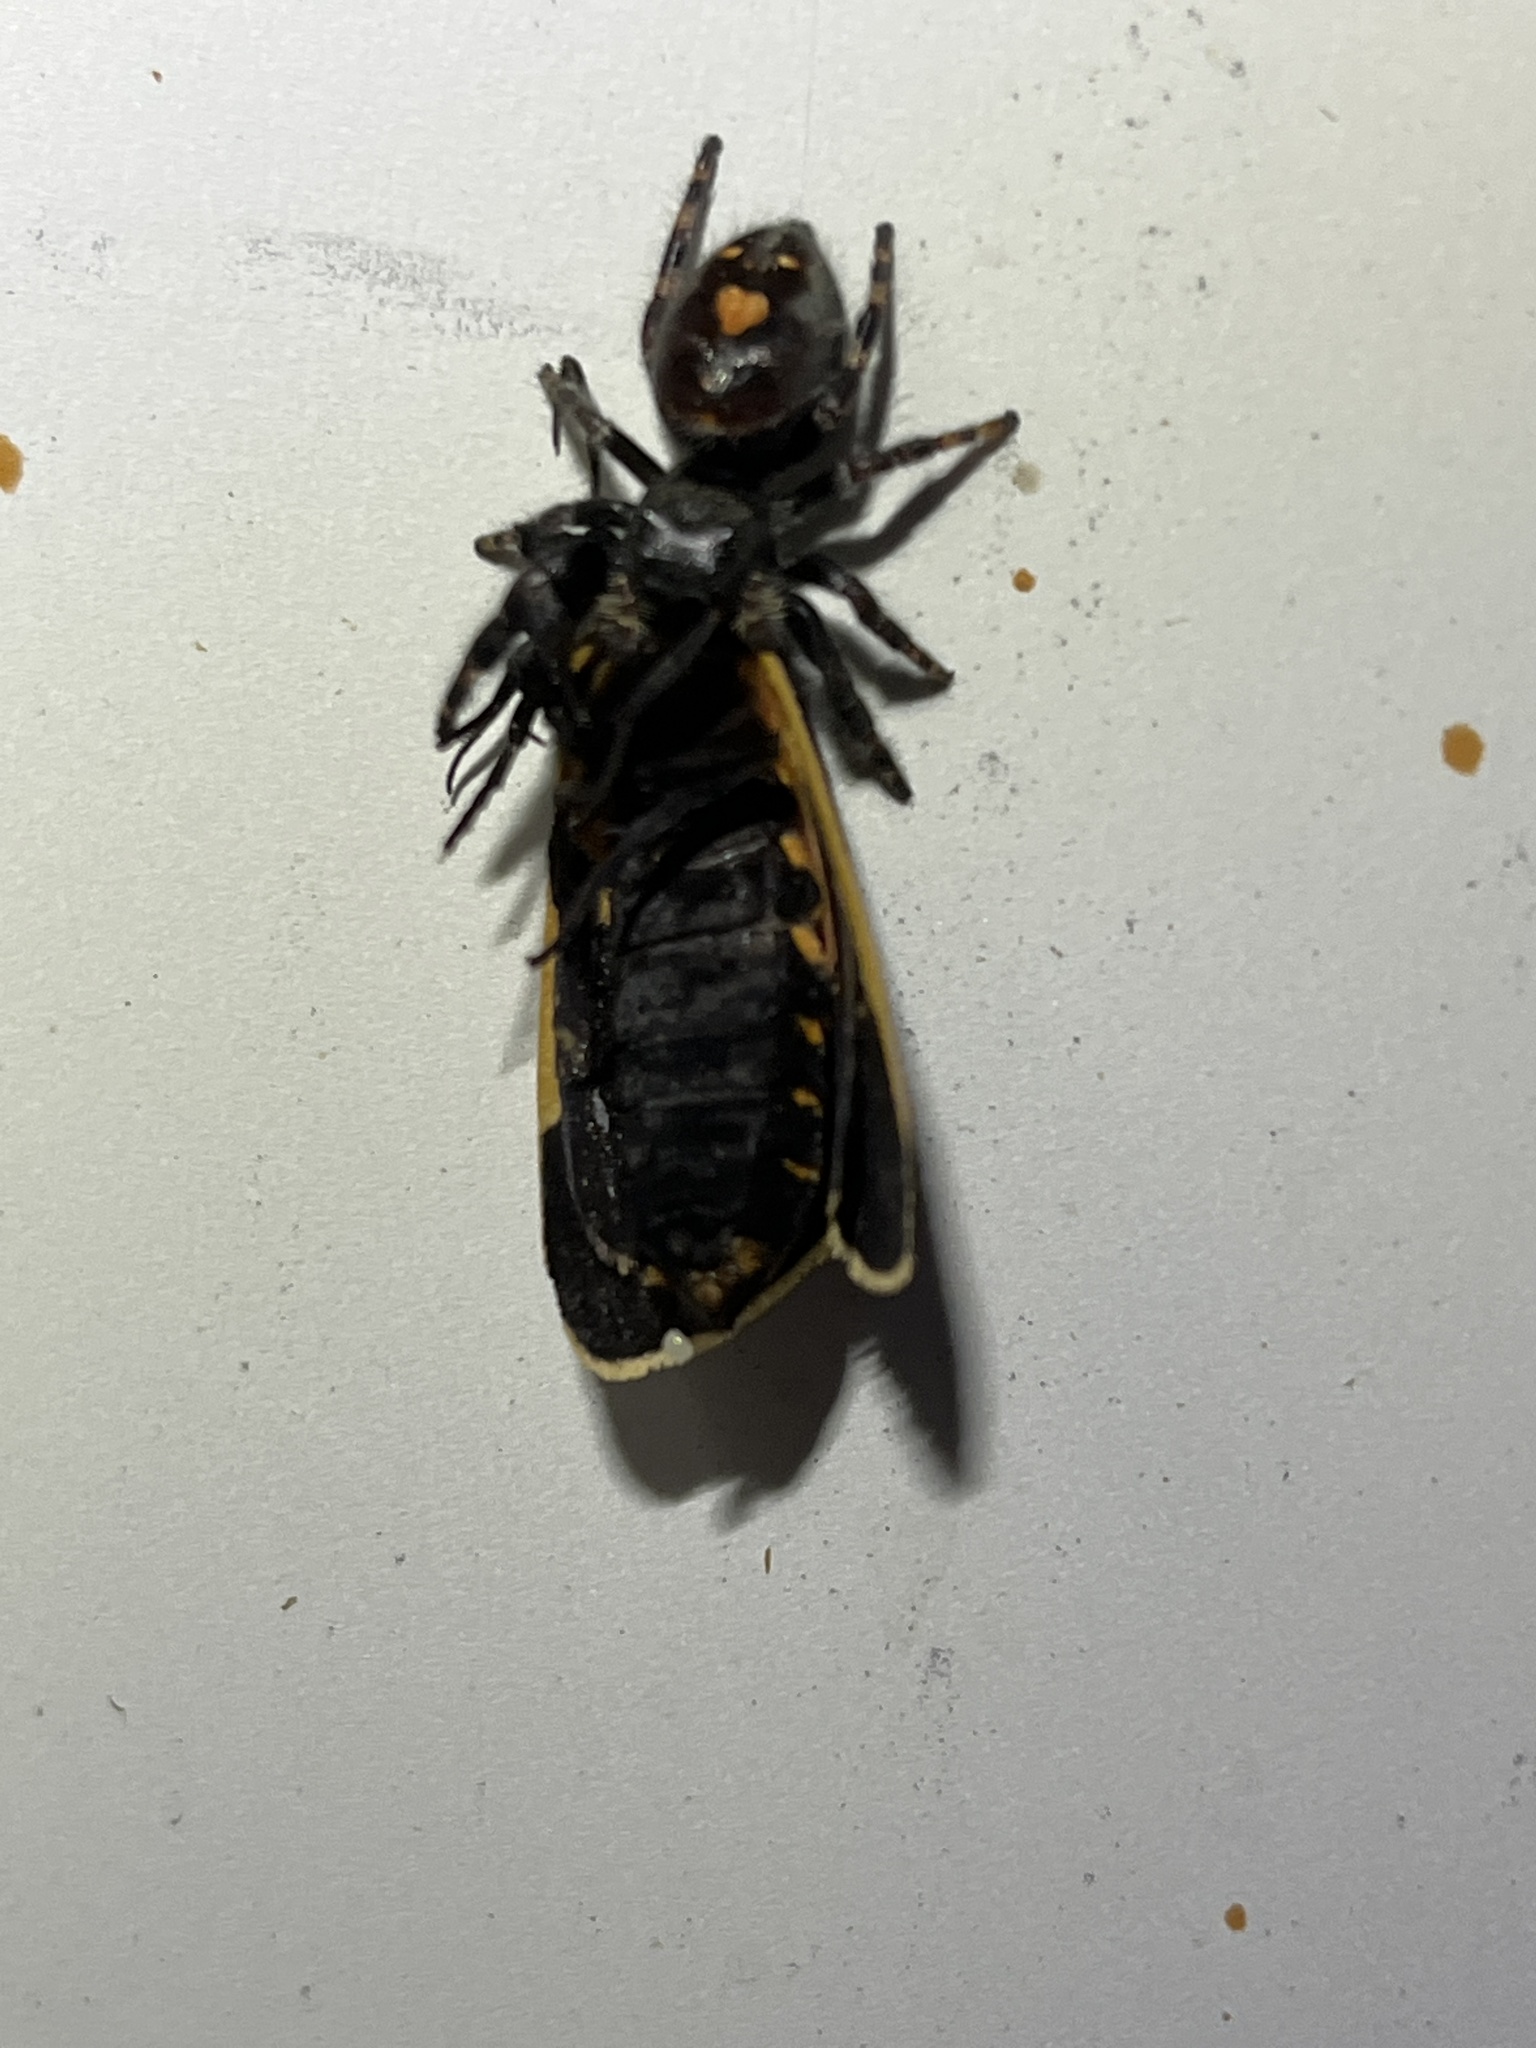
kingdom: Animalia
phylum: Arthropoda
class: Arachnida
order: Araneae
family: Salticidae
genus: Phidippus
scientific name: Phidippus audax
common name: Bold jumper
